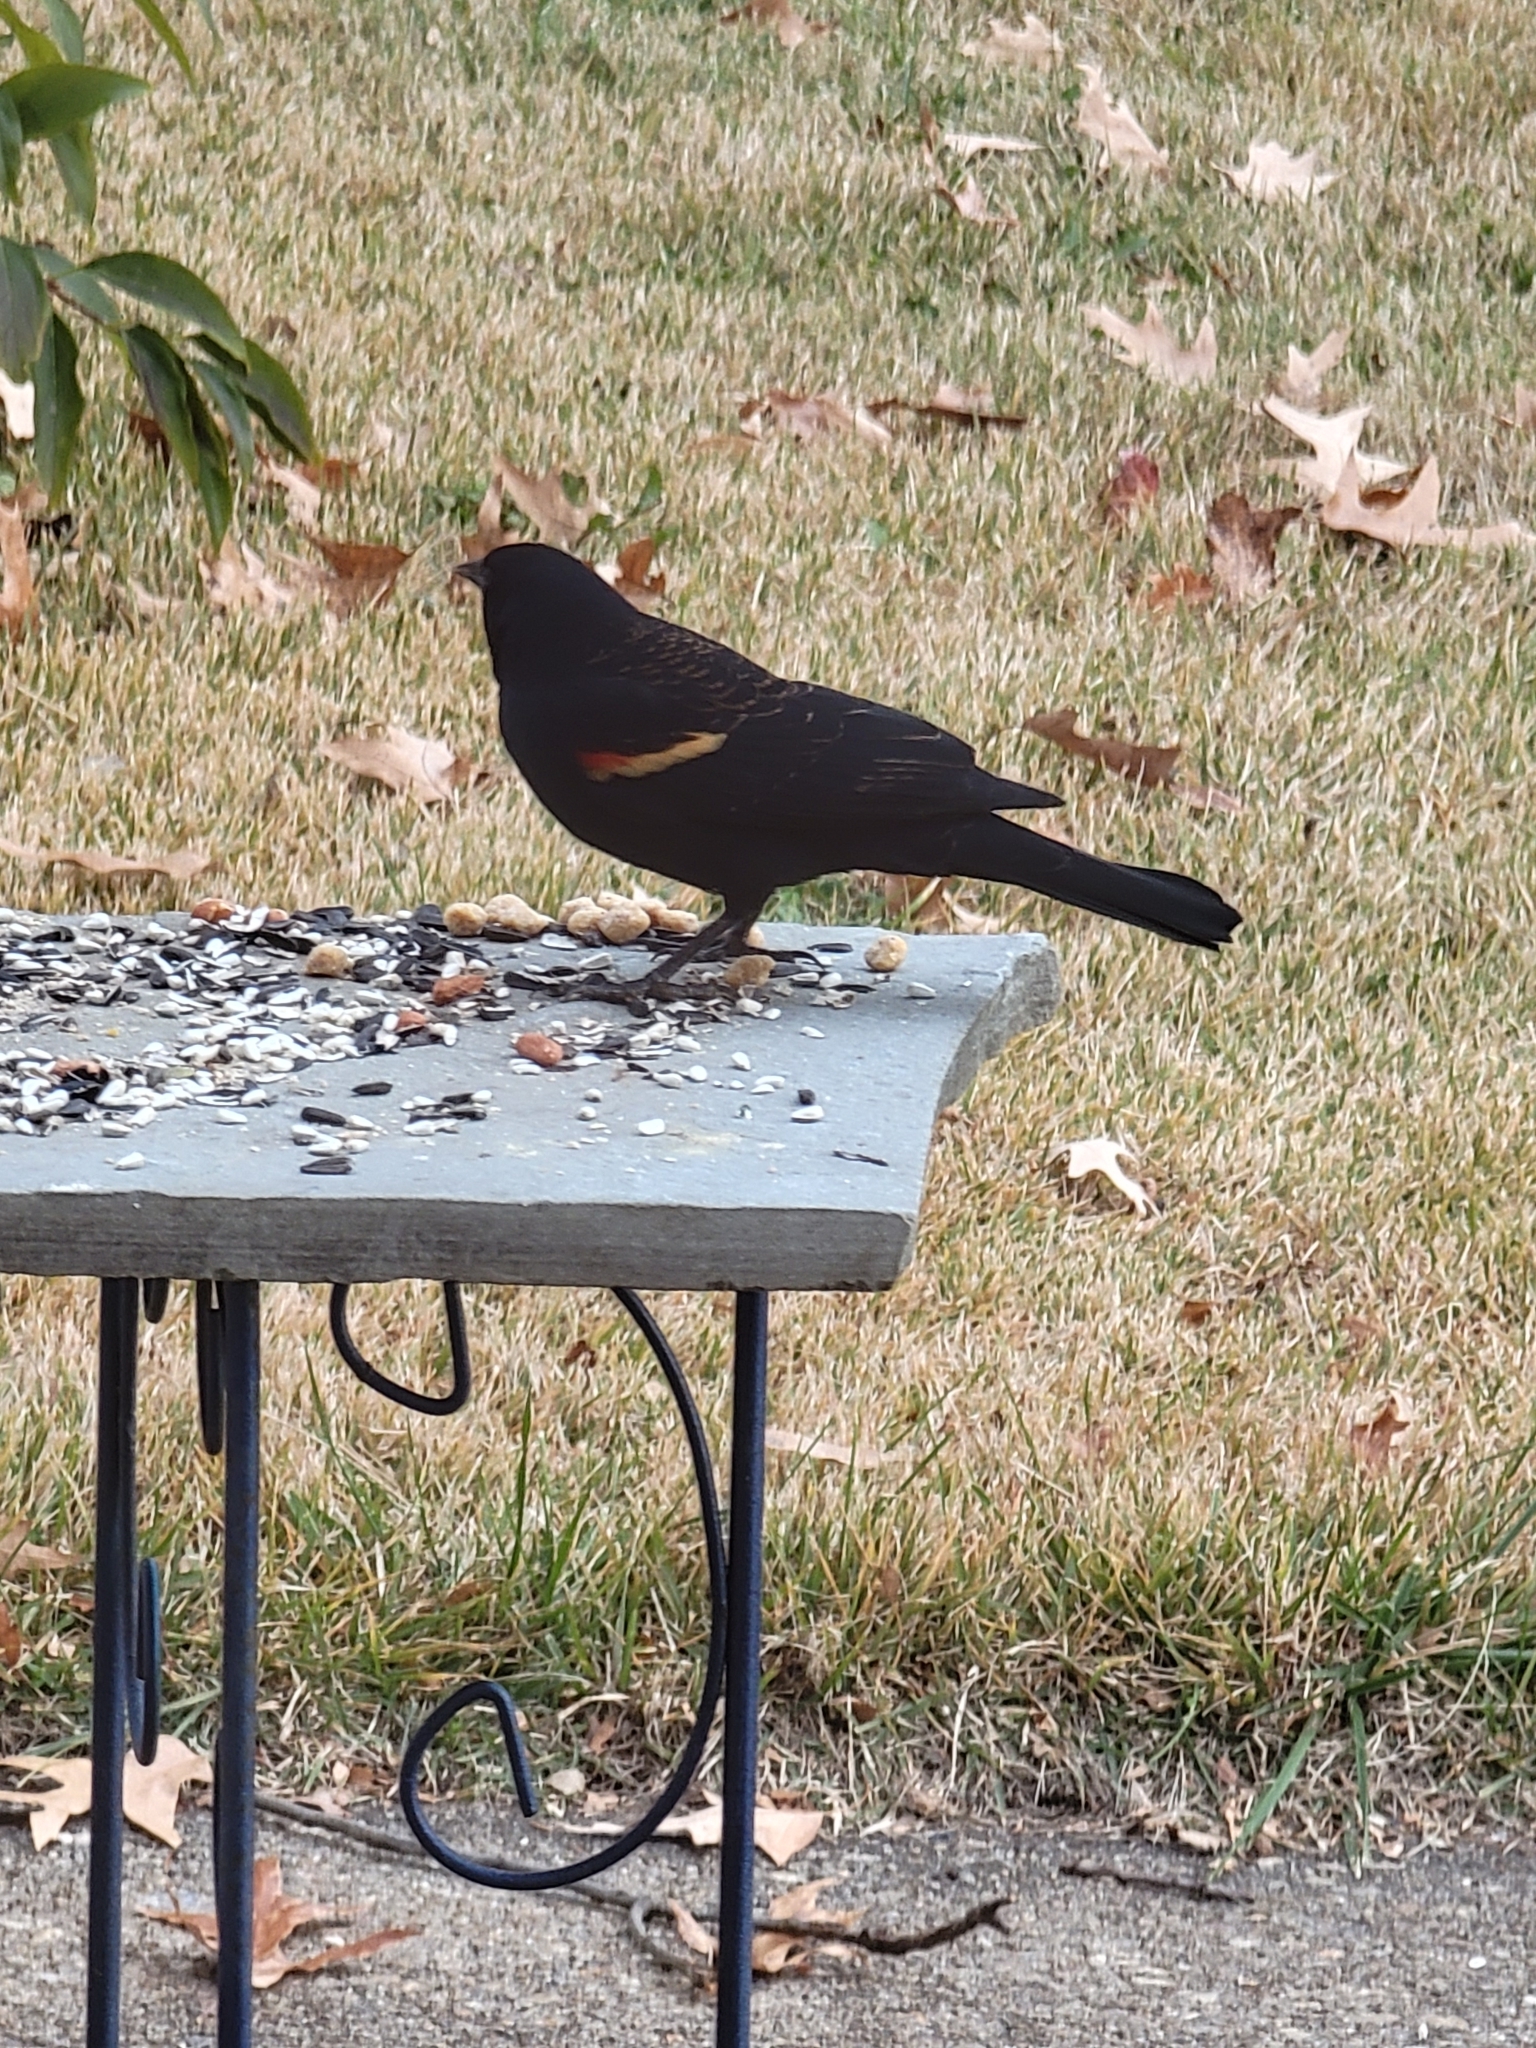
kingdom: Animalia
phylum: Chordata
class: Aves
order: Passeriformes
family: Icteridae
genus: Agelaius
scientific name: Agelaius phoeniceus
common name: Red-winged blackbird
